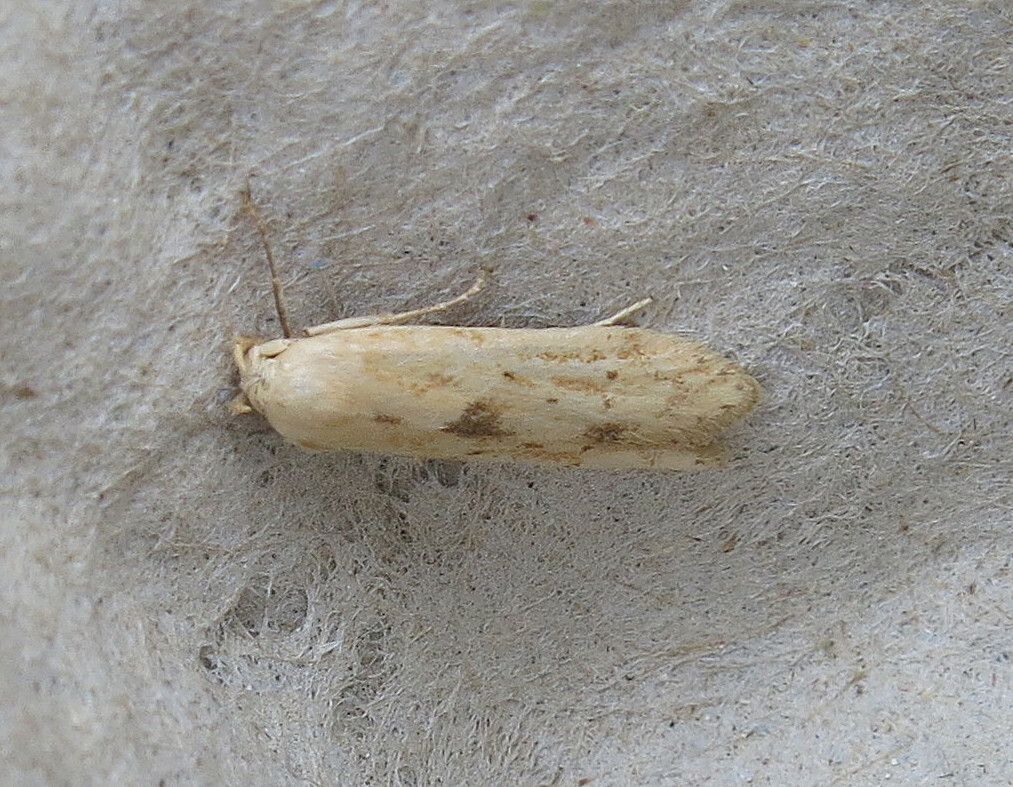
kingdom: Animalia
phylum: Arthropoda
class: Insecta
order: Lepidoptera
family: Blastobasidae
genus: Blastobasis
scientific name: Blastobasis lacticolella
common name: London dowd
